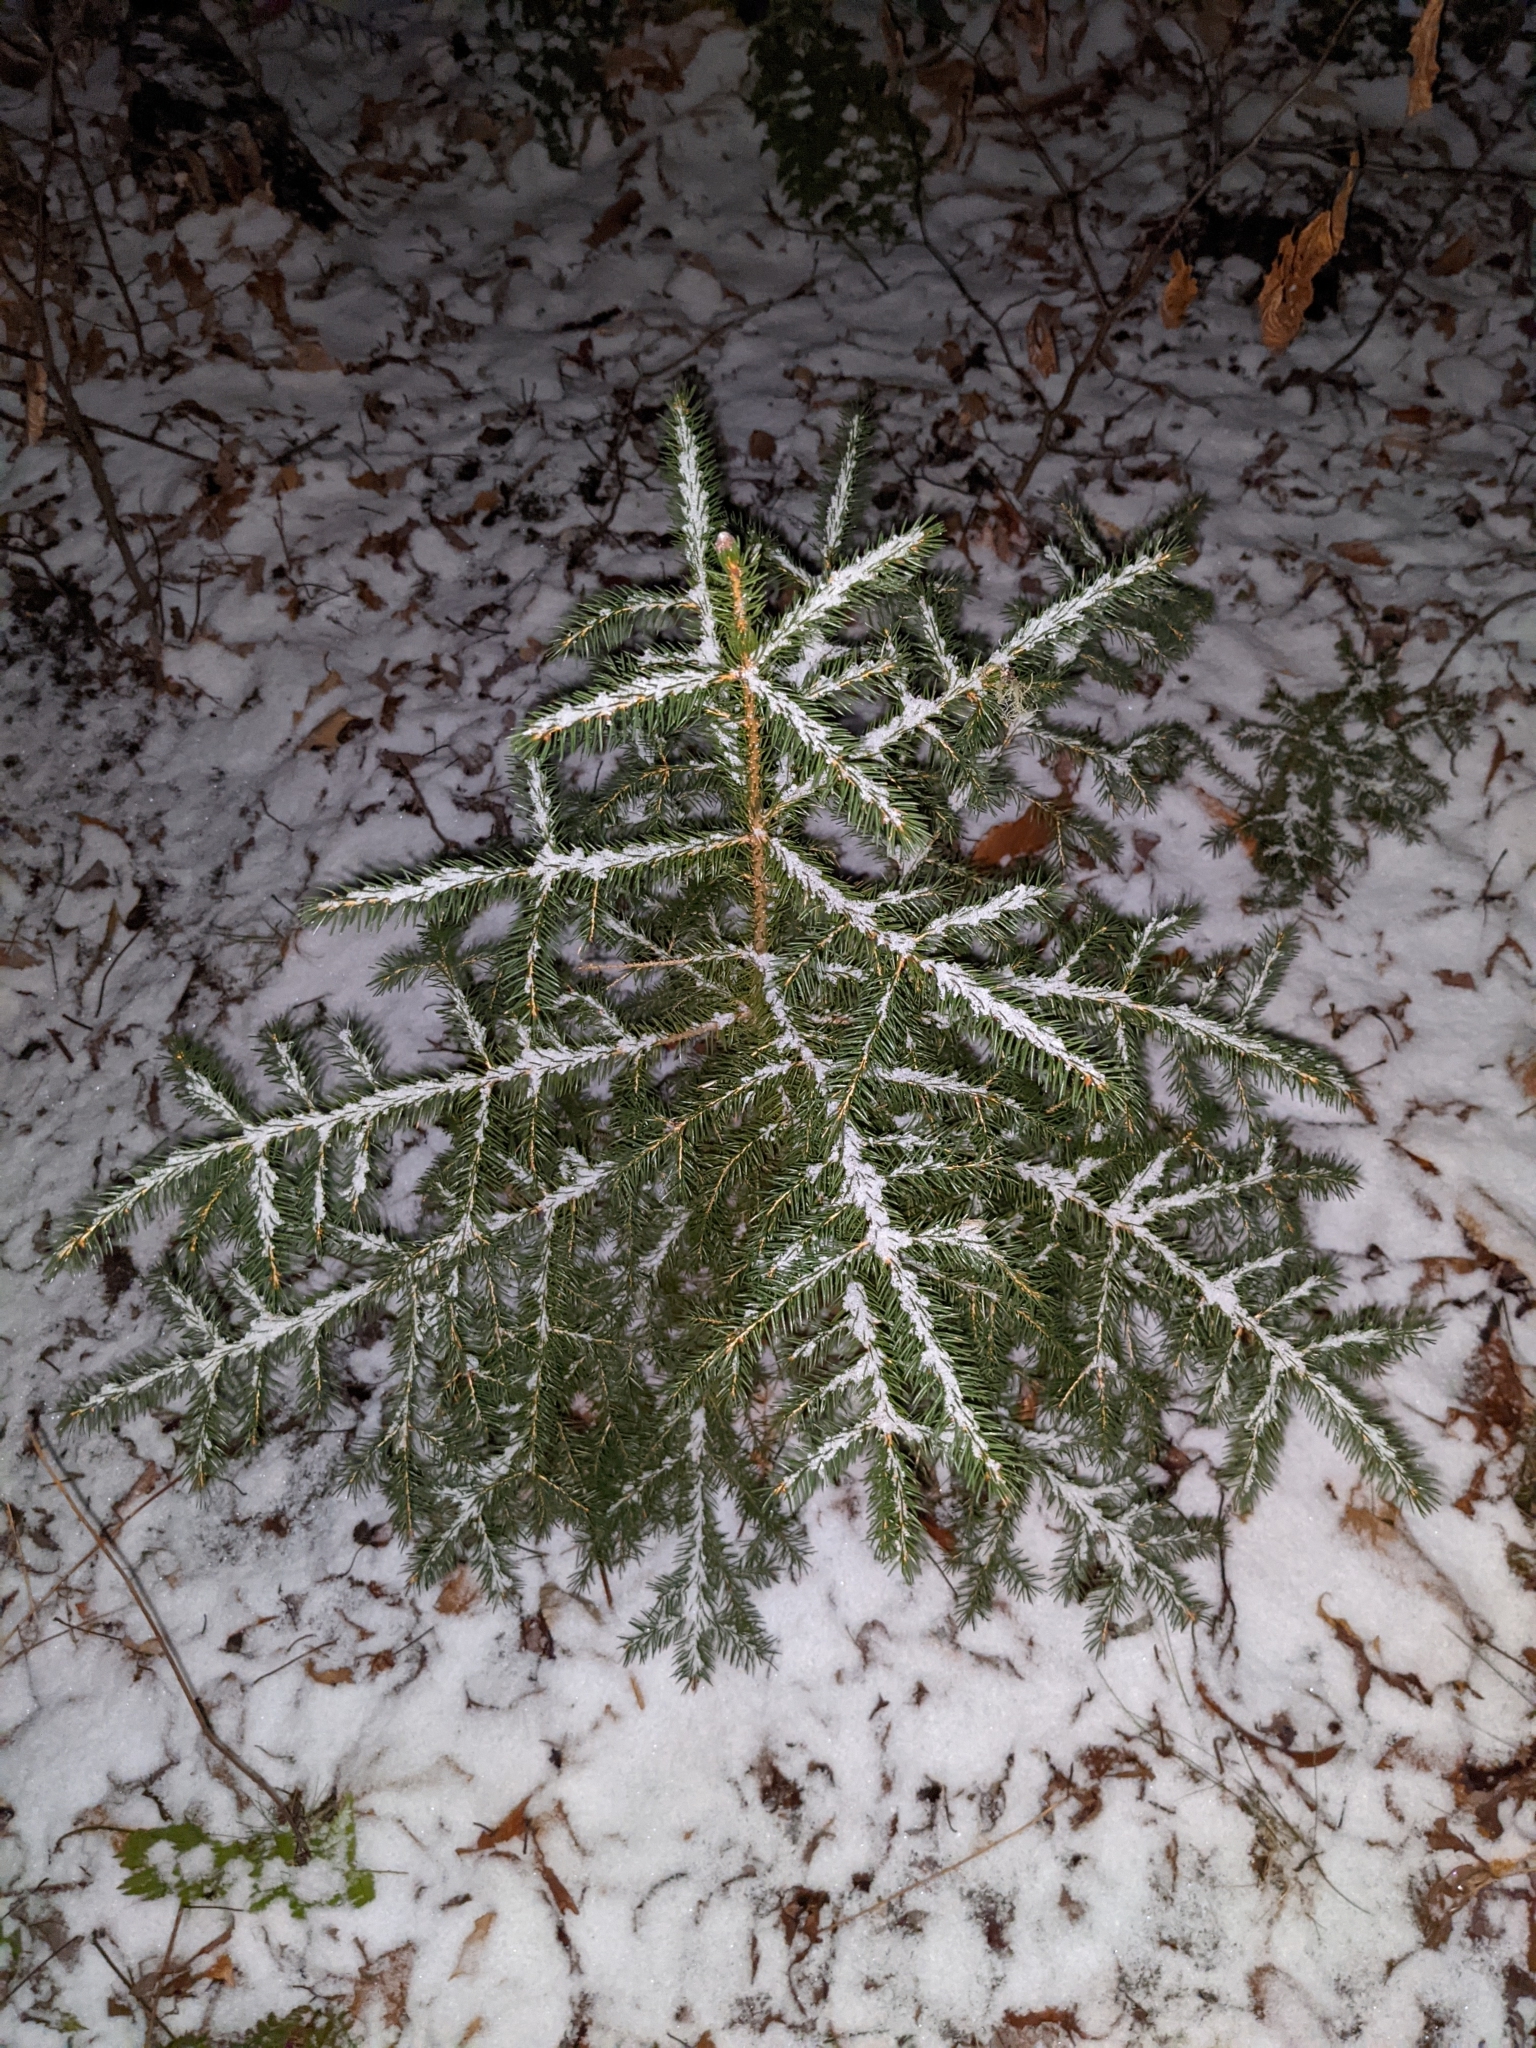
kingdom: Plantae
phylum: Tracheophyta
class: Pinopsida
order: Pinales
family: Pinaceae
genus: Picea
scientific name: Picea rubens
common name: Red spruce
